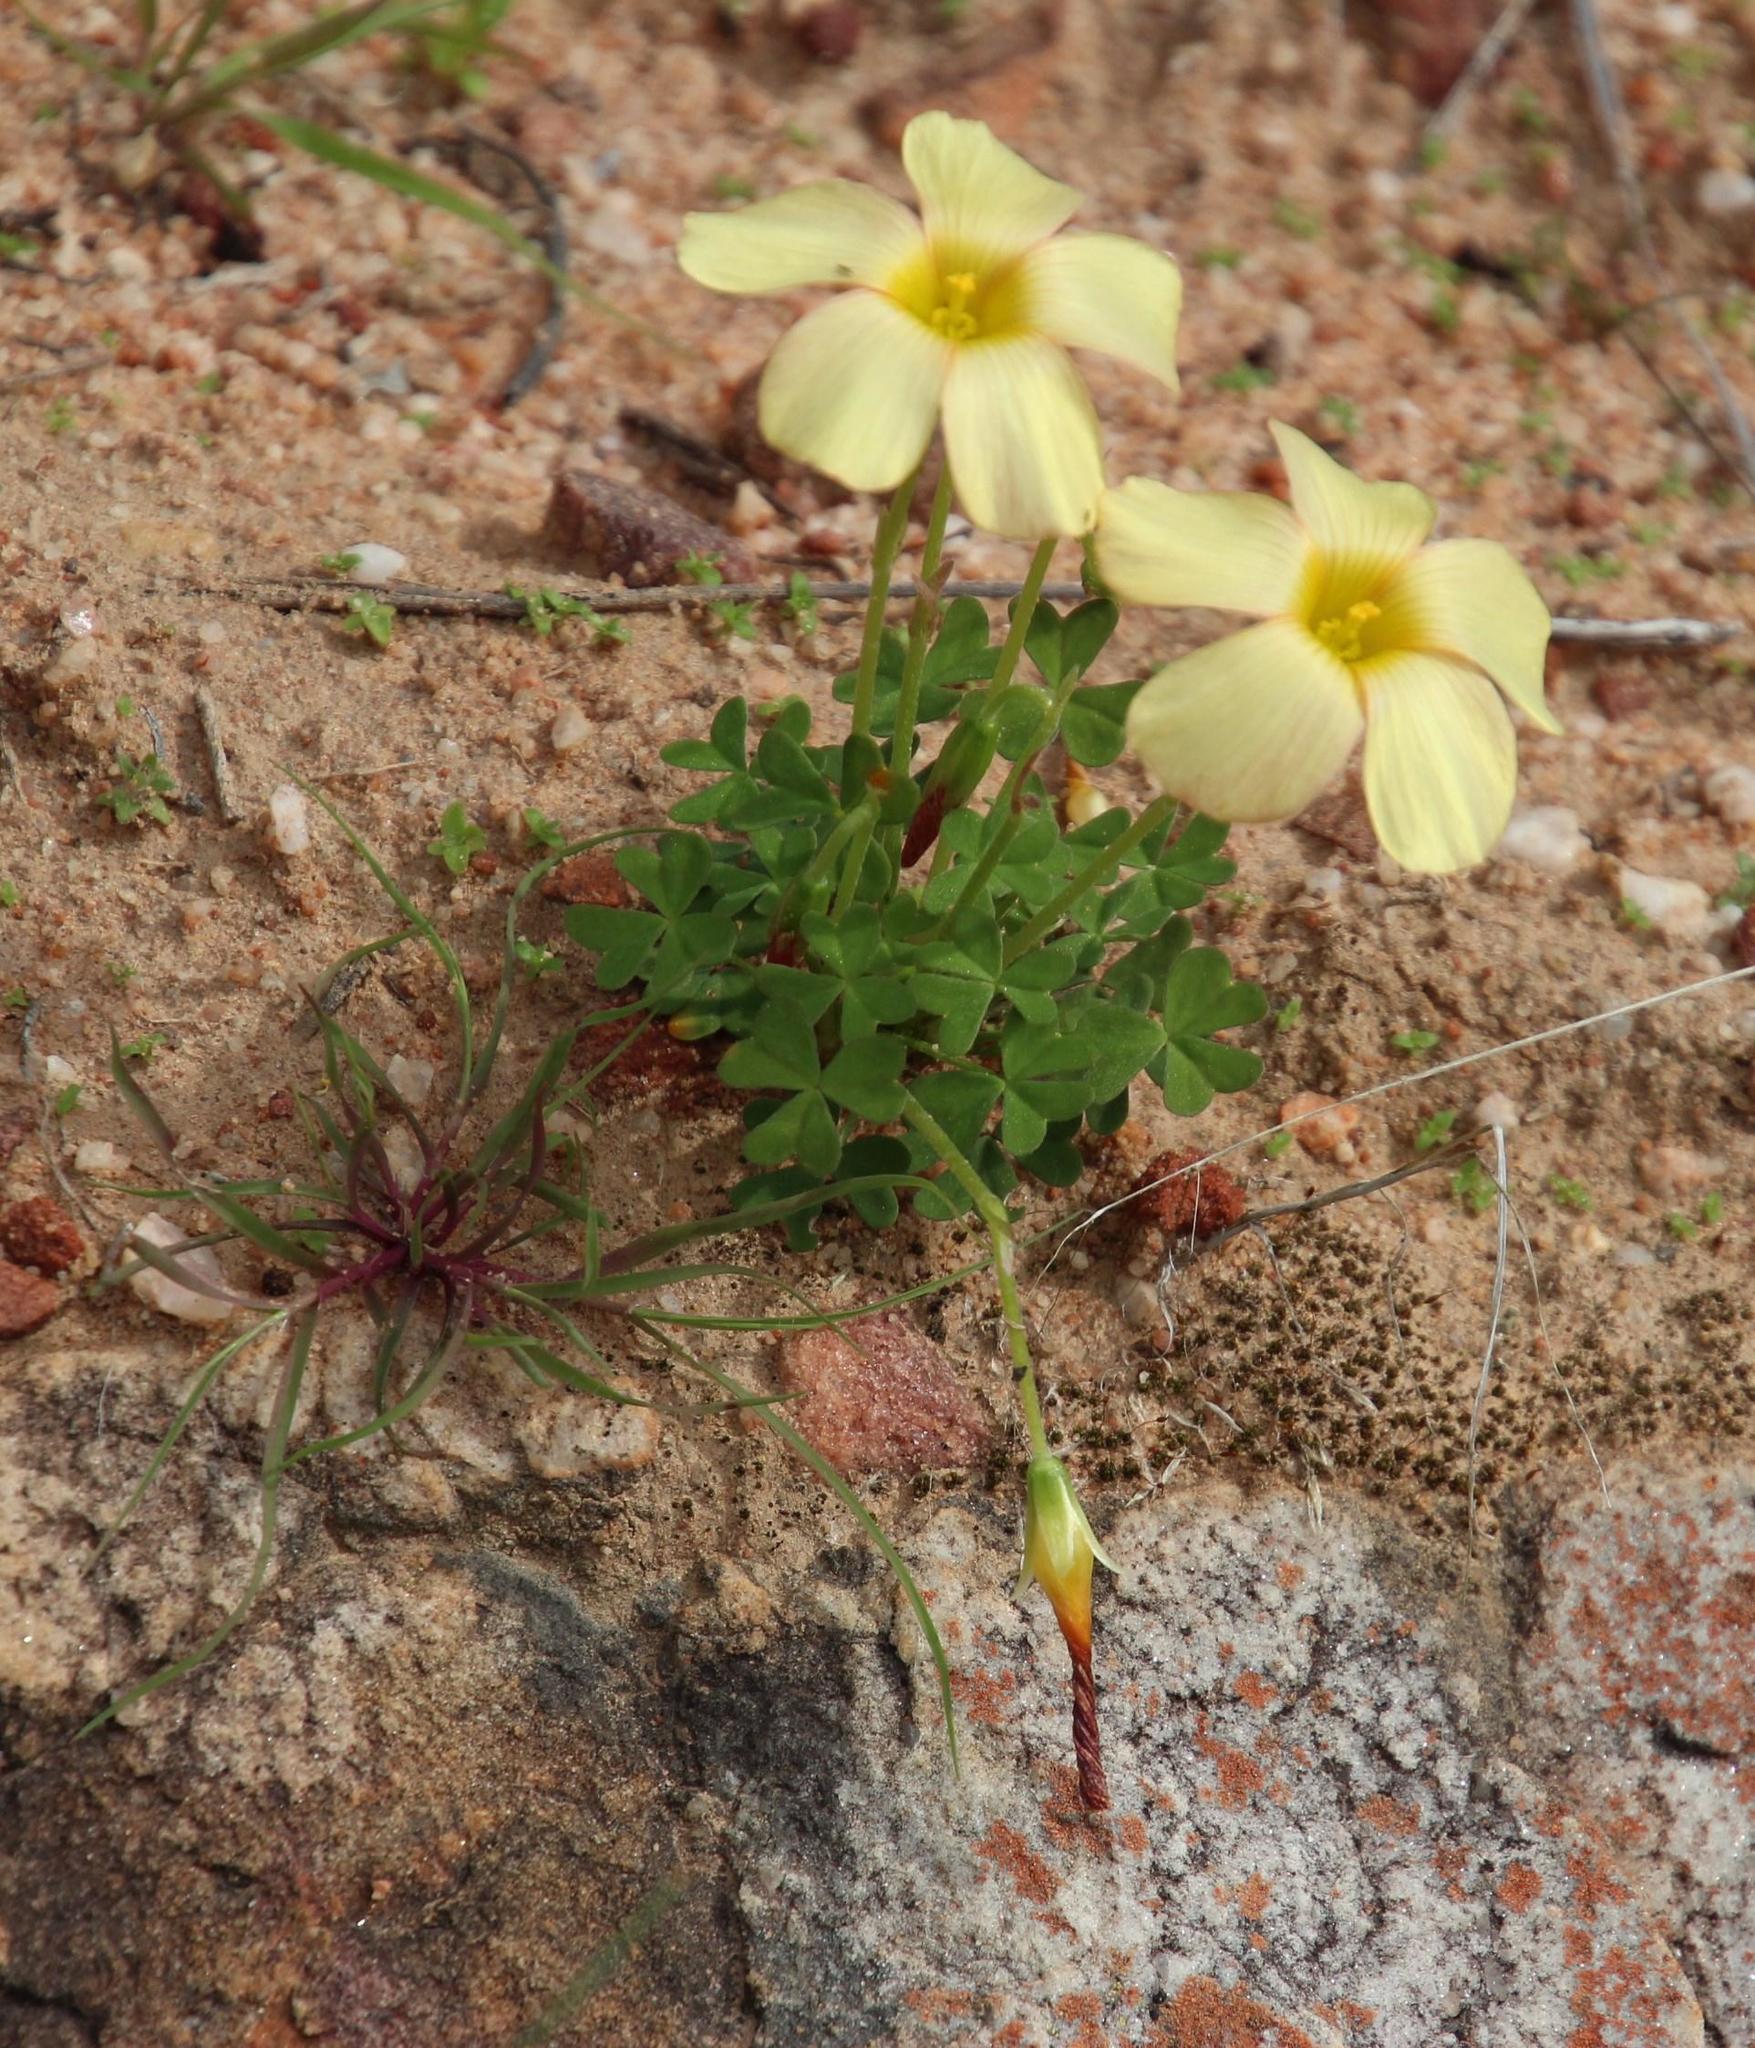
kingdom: Plantae
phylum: Tracheophyta
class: Magnoliopsida
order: Oxalidales
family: Oxalidaceae
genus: Oxalis
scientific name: Oxalis obtusa
